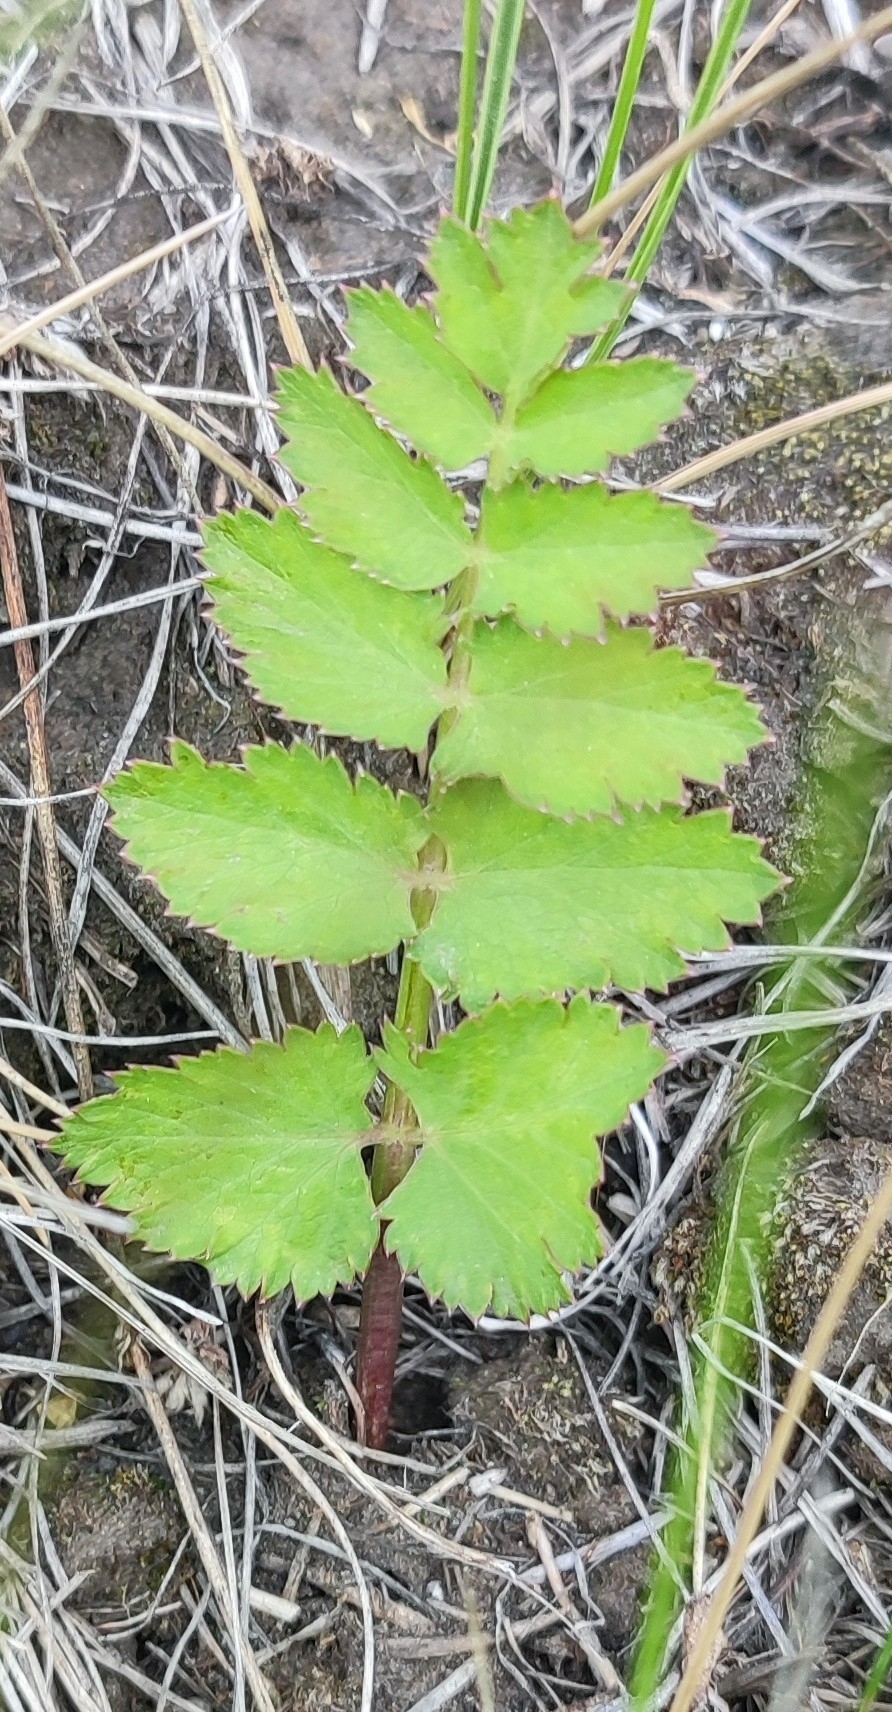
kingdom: Plantae
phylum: Tracheophyta
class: Magnoliopsida
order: Apiales
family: Apiaceae
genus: Pastinaca
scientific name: Pastinaca sativa
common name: Wild parsnip
